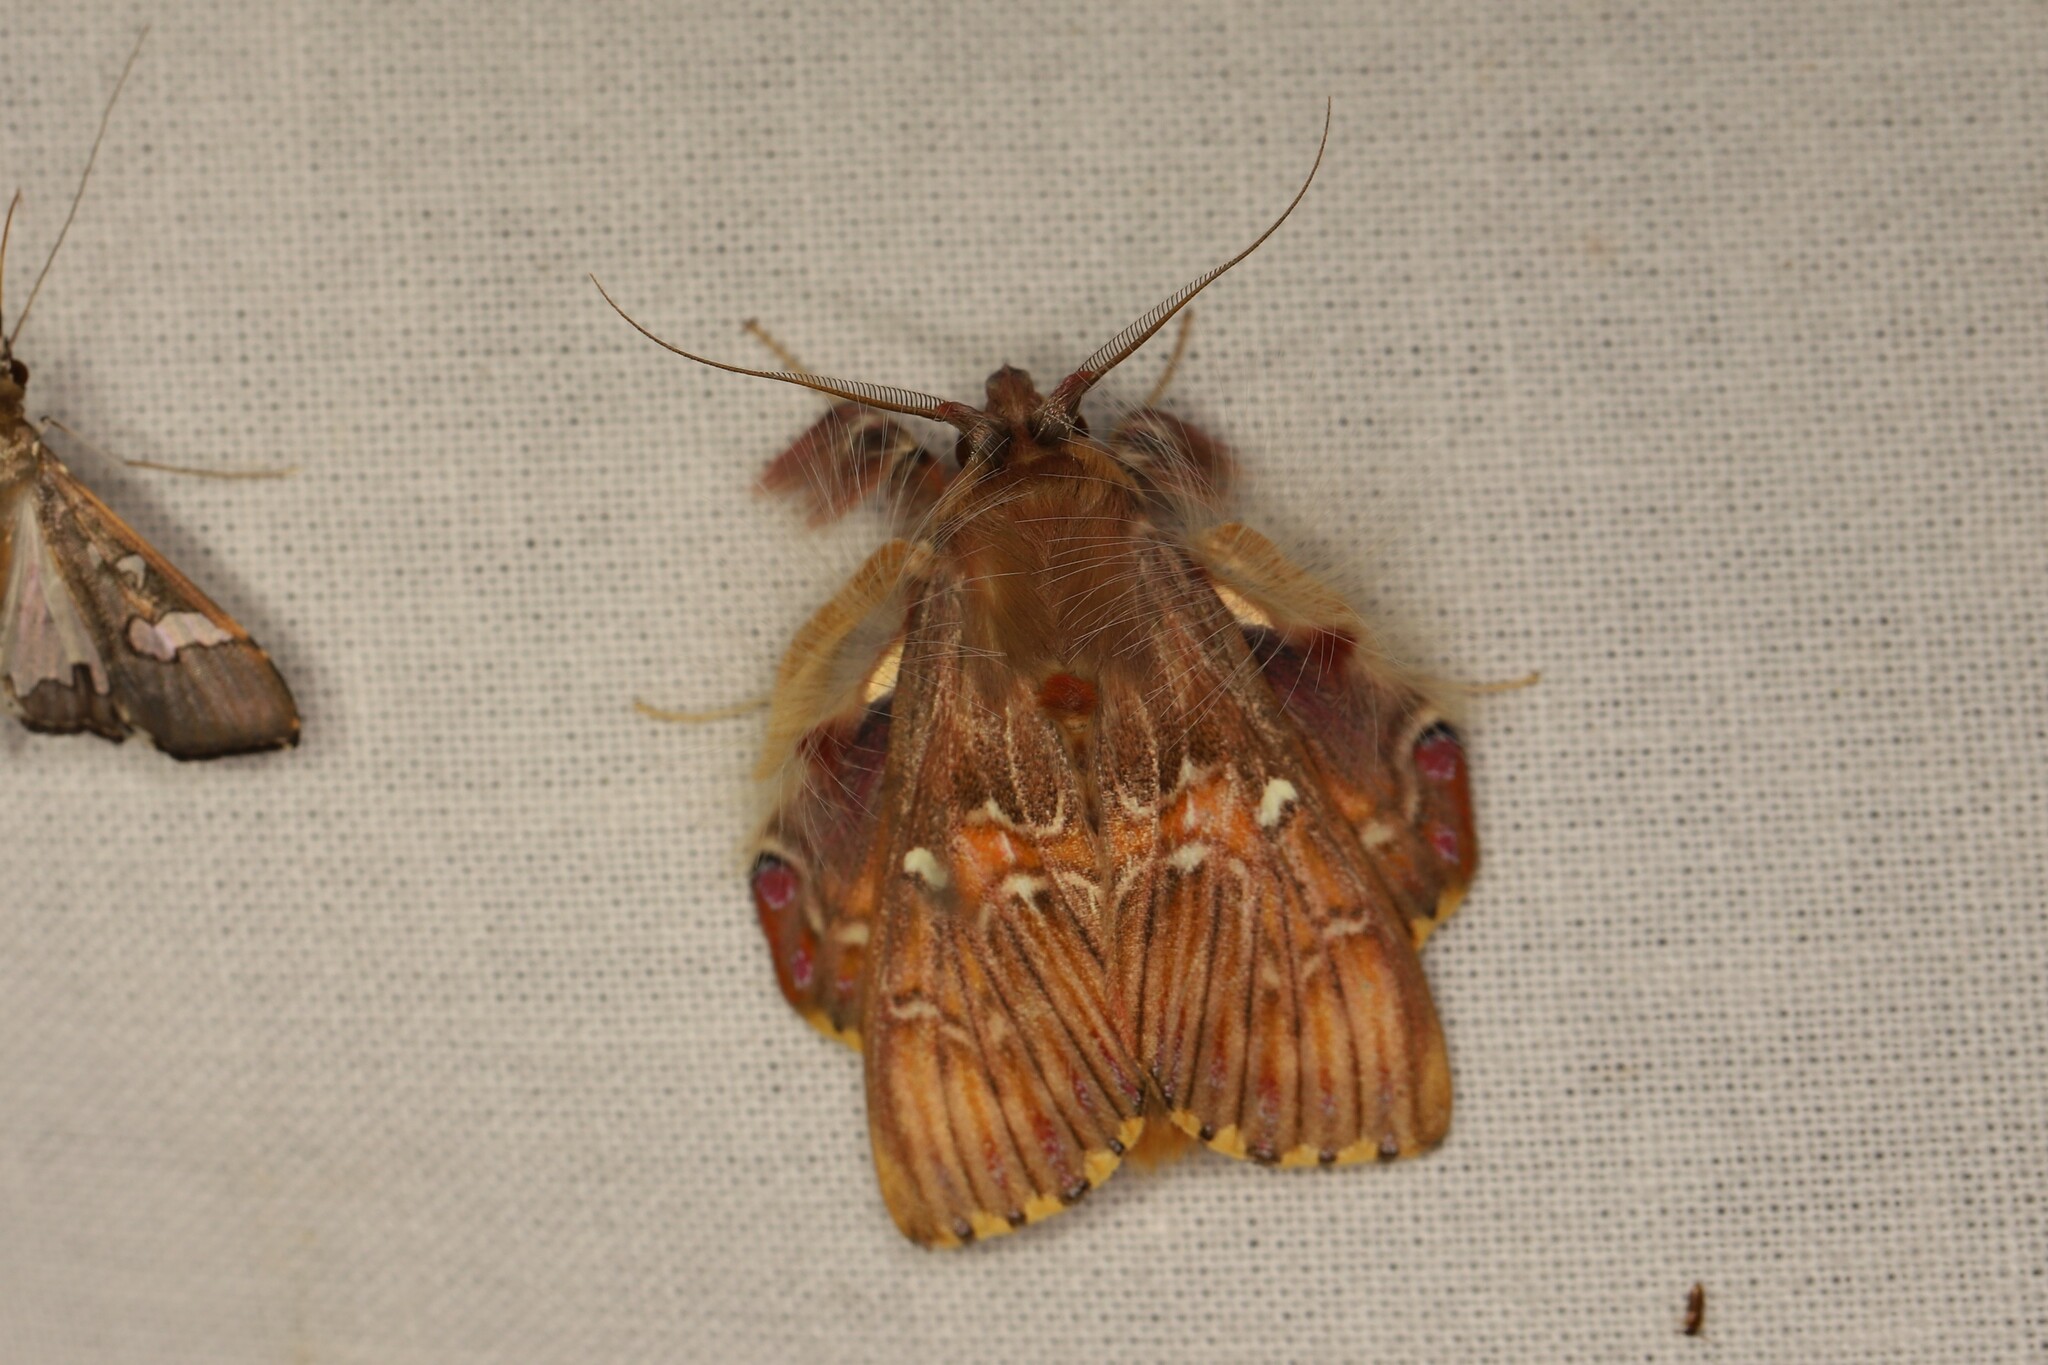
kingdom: Animalia
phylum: Arthropoda
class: Insecta
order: Lepidoptera
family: Erebidae
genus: Sosxetra
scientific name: Sosxetra grata
